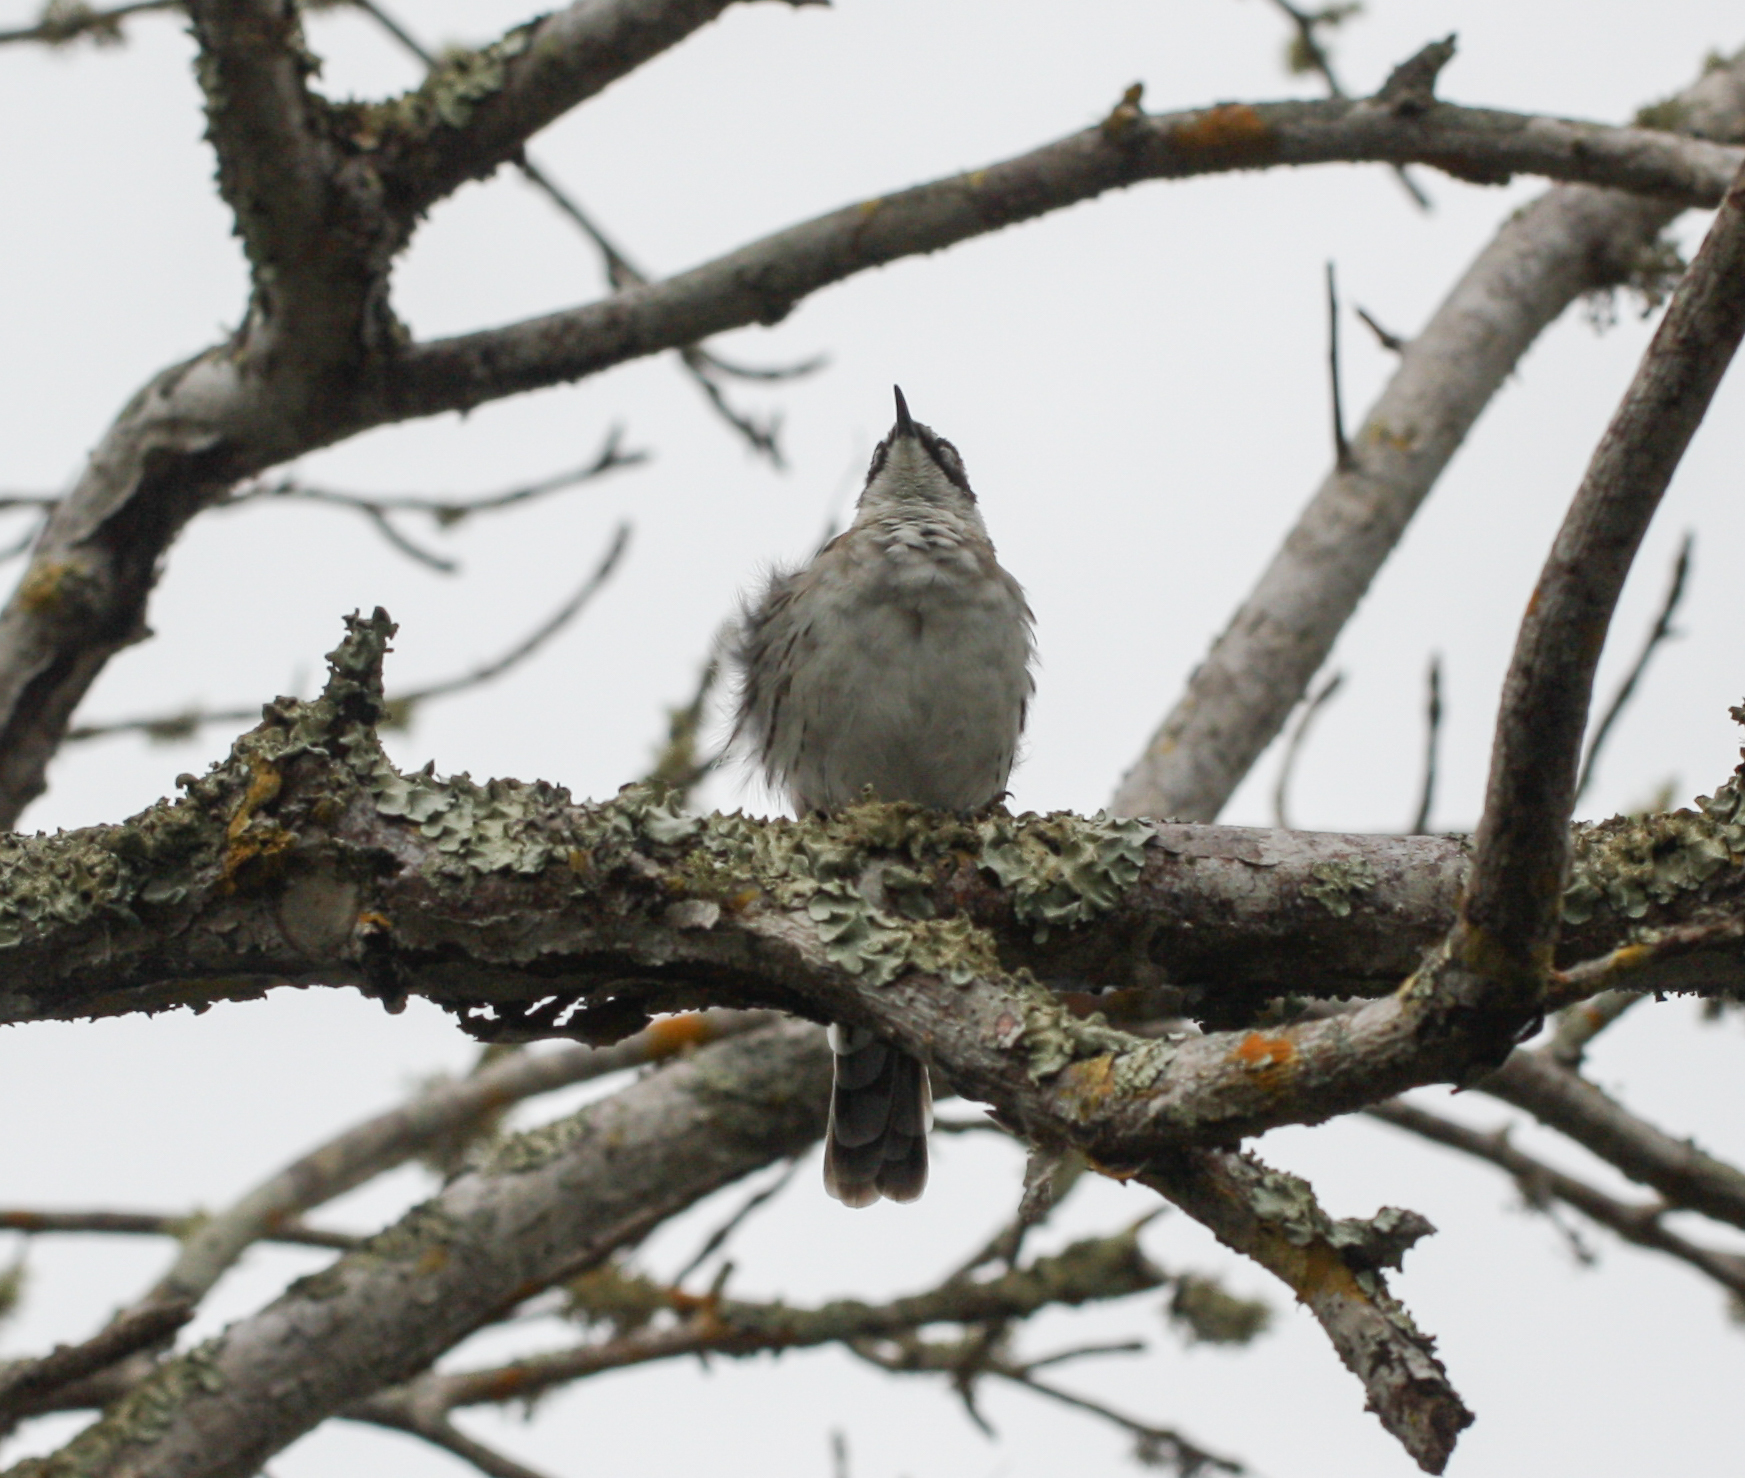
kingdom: Animalia
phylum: Chordata
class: Aves
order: Passeriformes
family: Mimidae
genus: Mimus
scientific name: Mimus parvulus
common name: Galapagos mockingbird
